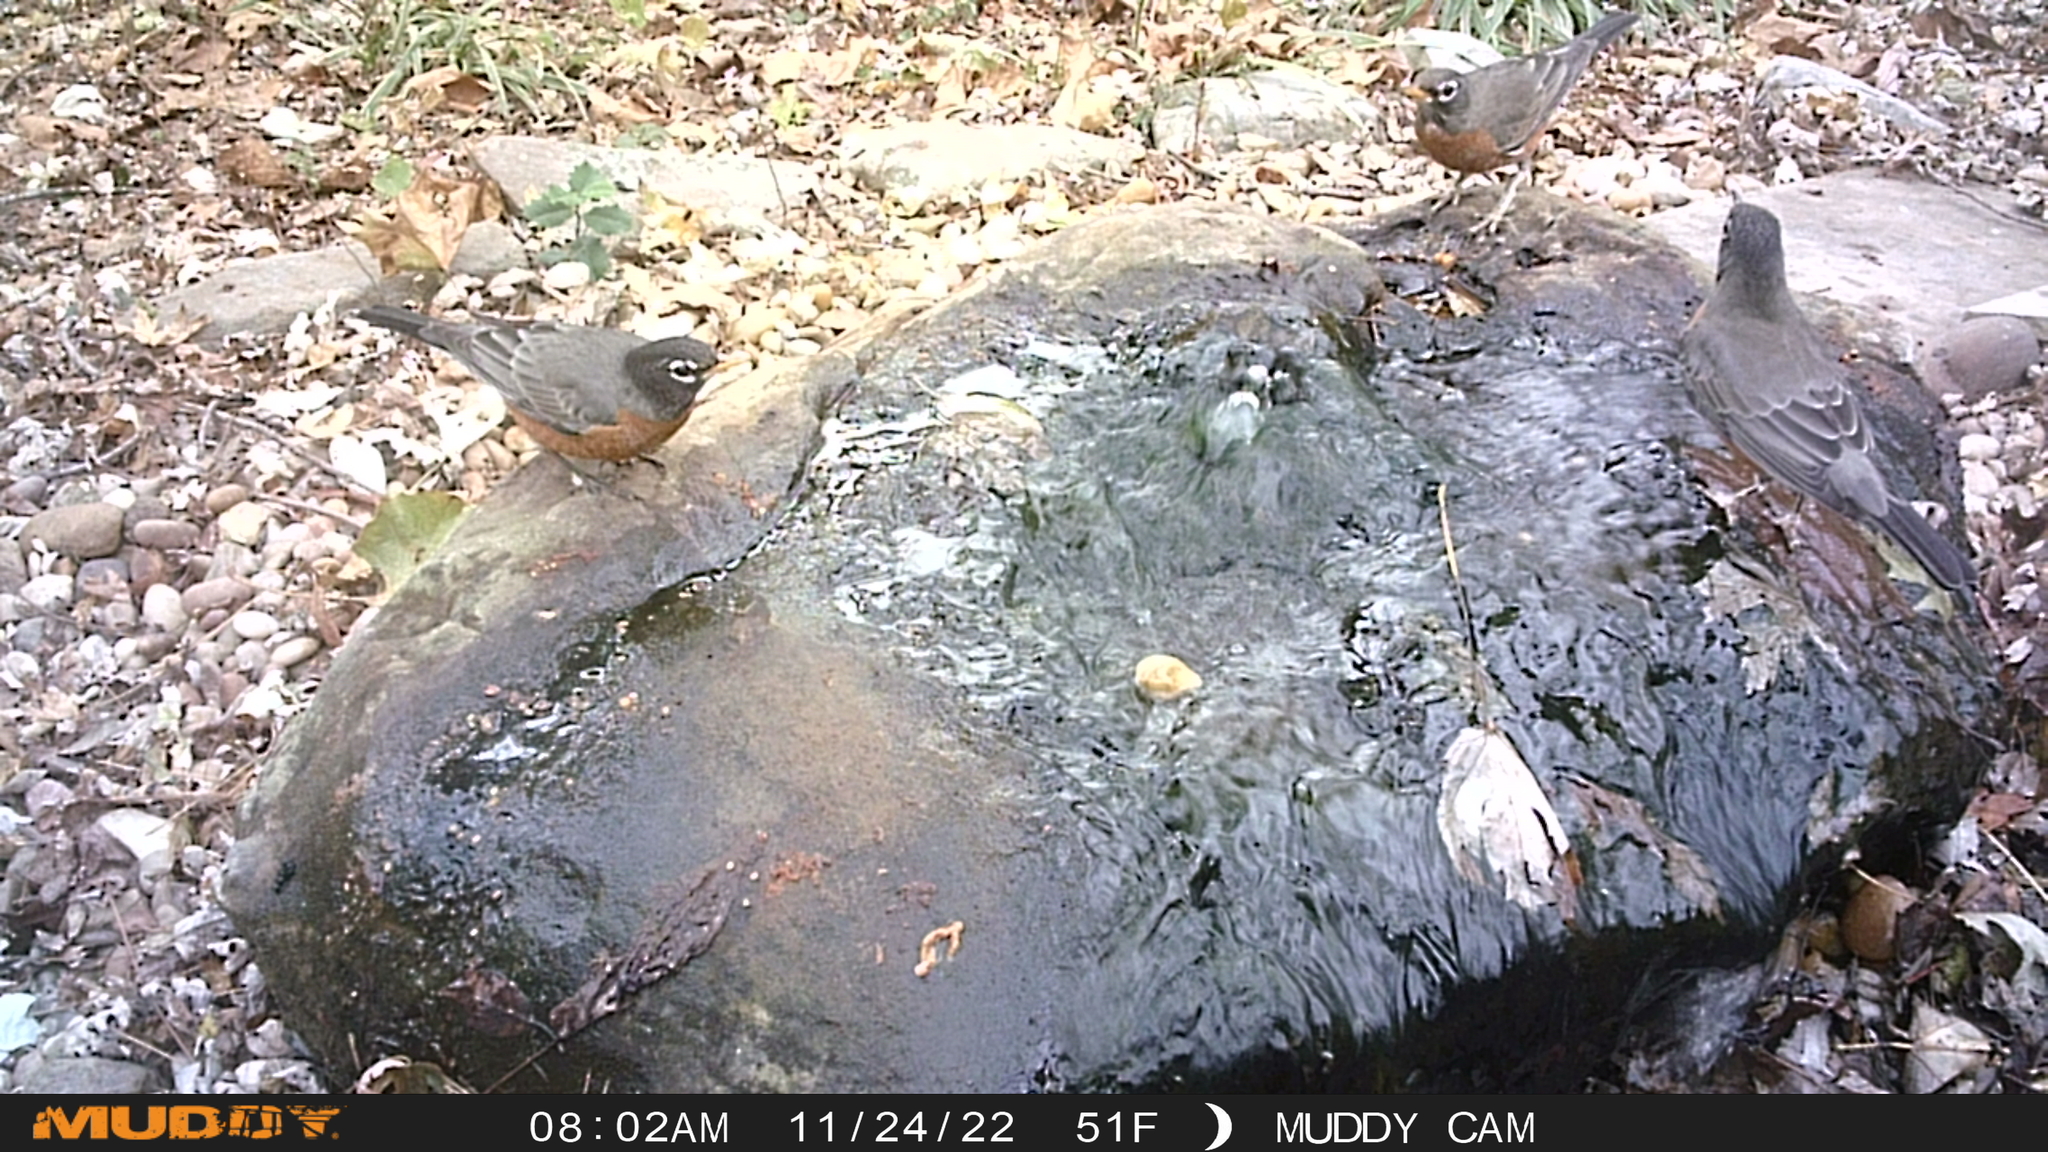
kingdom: Animalia
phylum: Chordata
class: Aves
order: Passeriformes
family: Turdidae
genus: Turdus
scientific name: Turdus migratorius
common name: American robin
